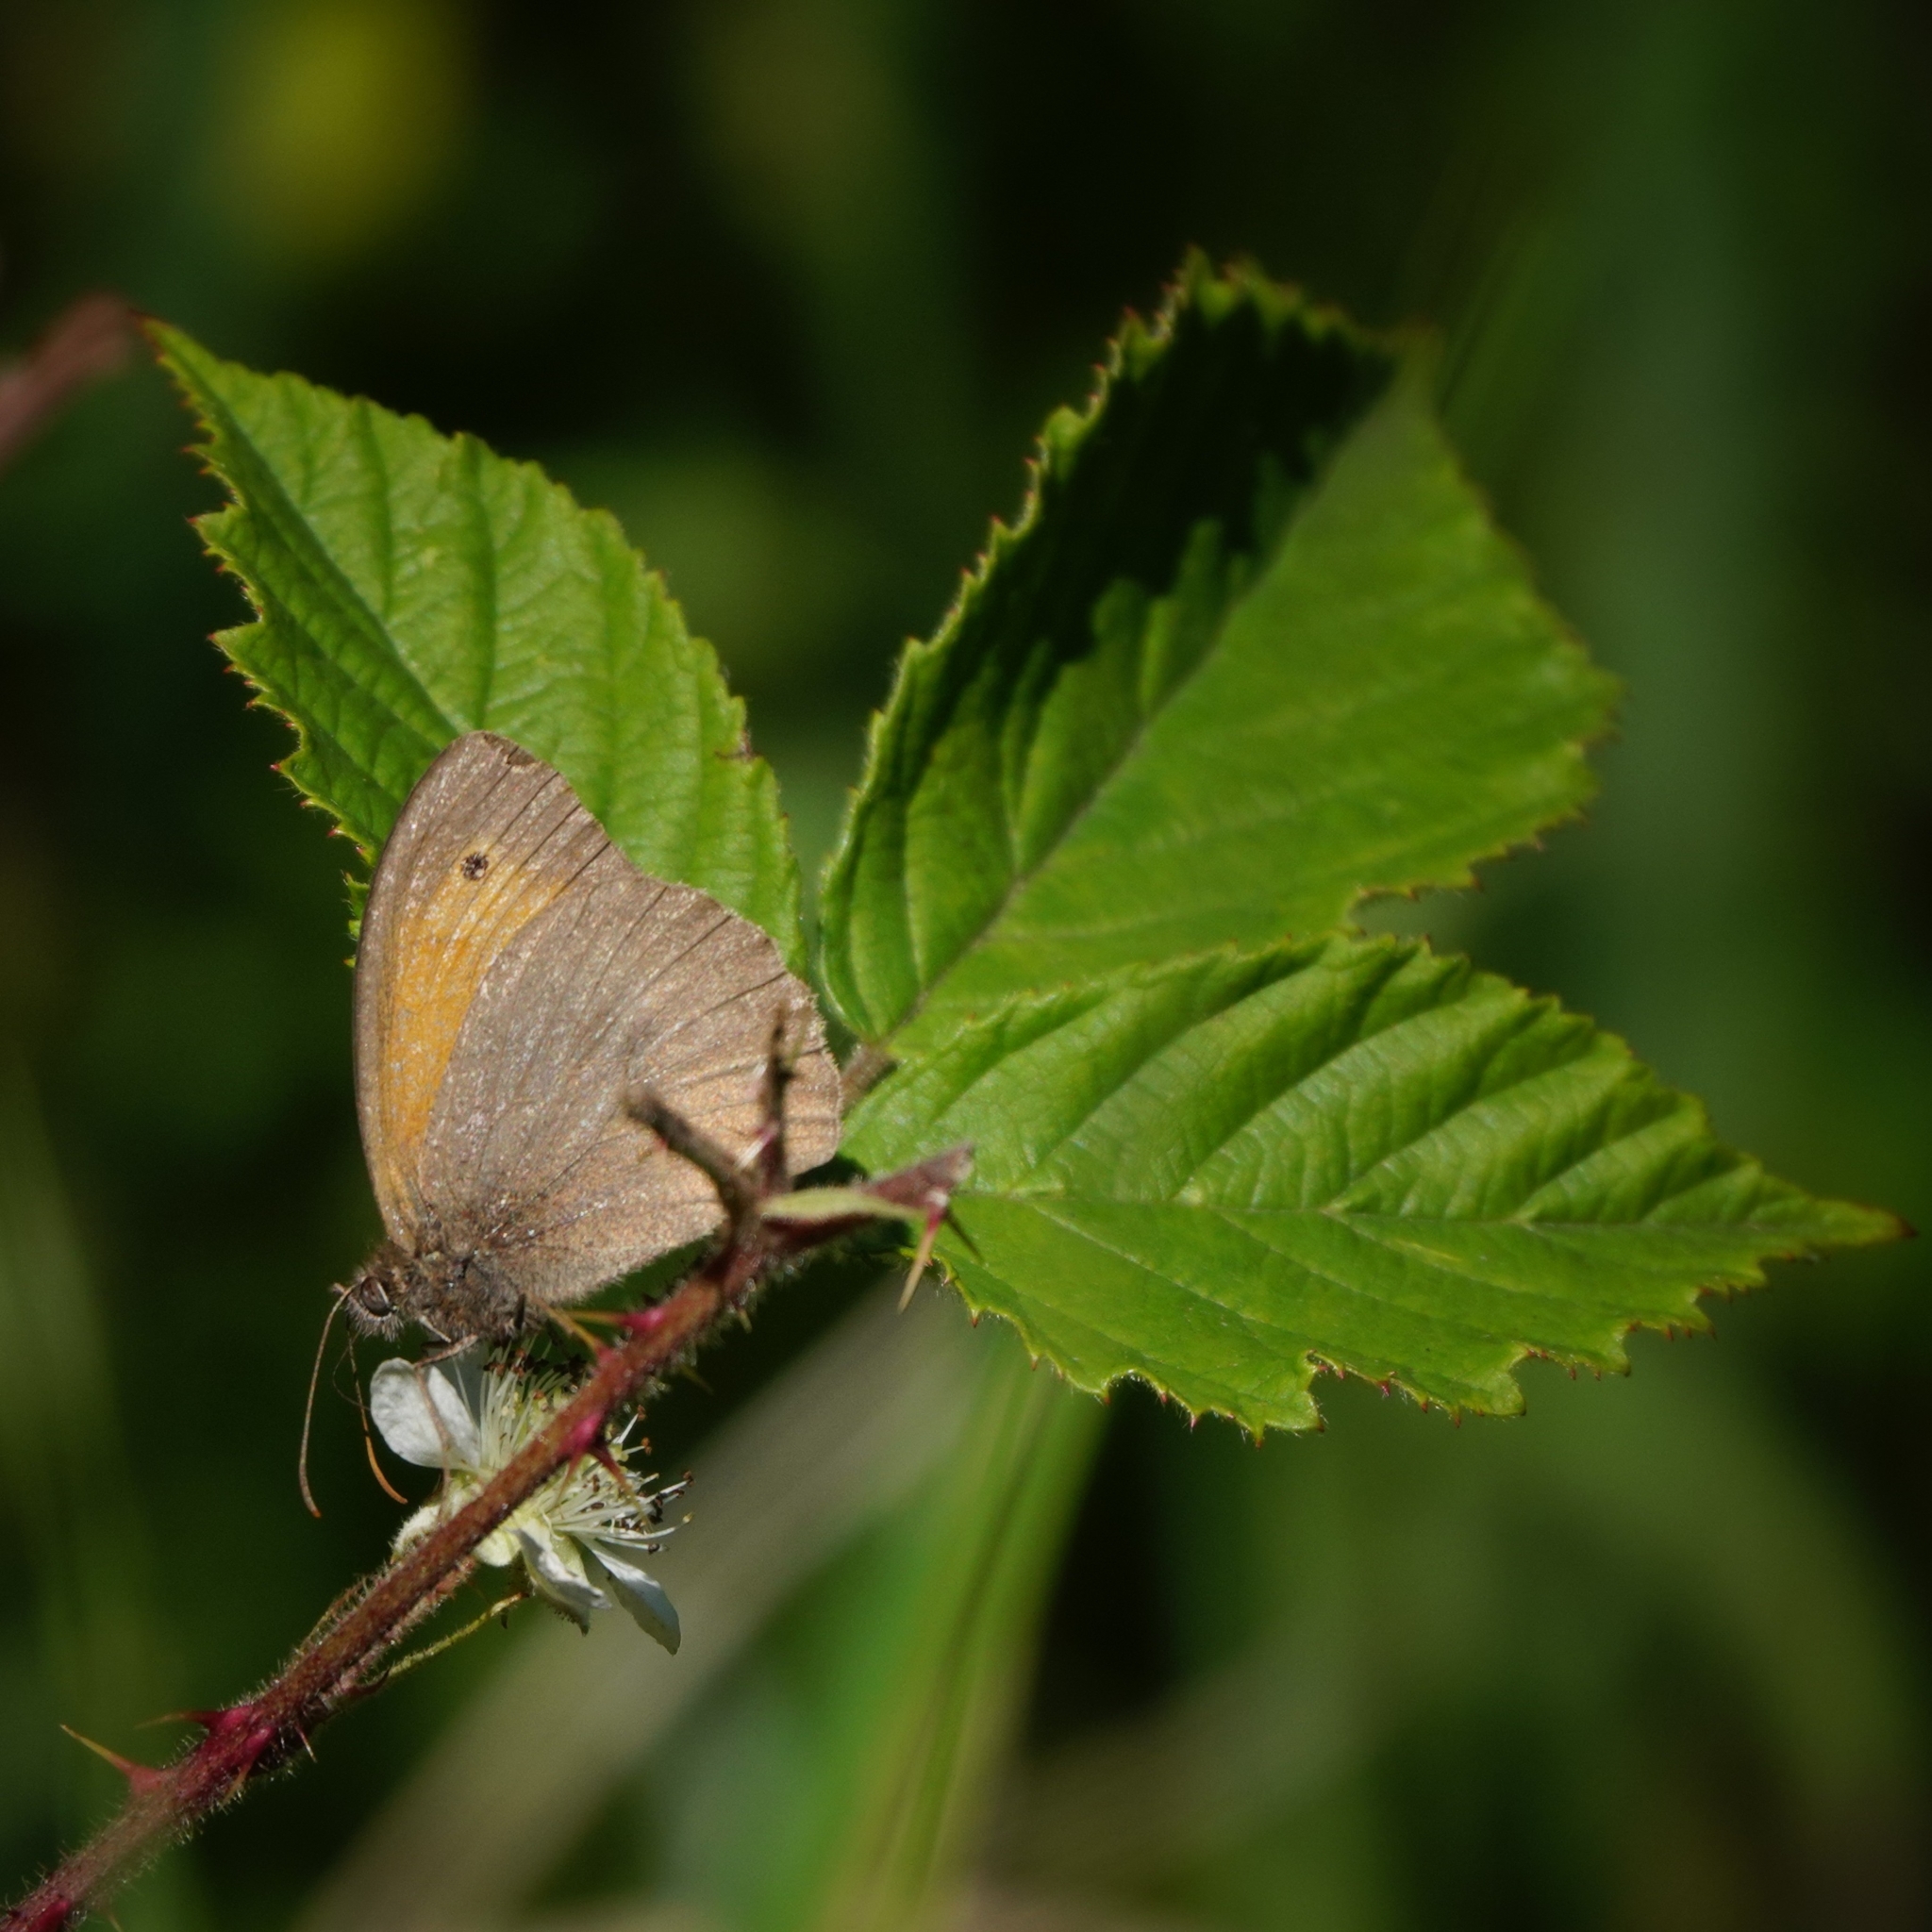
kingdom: Animalia
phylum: Arthropoda
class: Insecta
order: Lepidoptera
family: Nymphalidae
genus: Maniola
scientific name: Maniola jurtina
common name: Meadow brown
